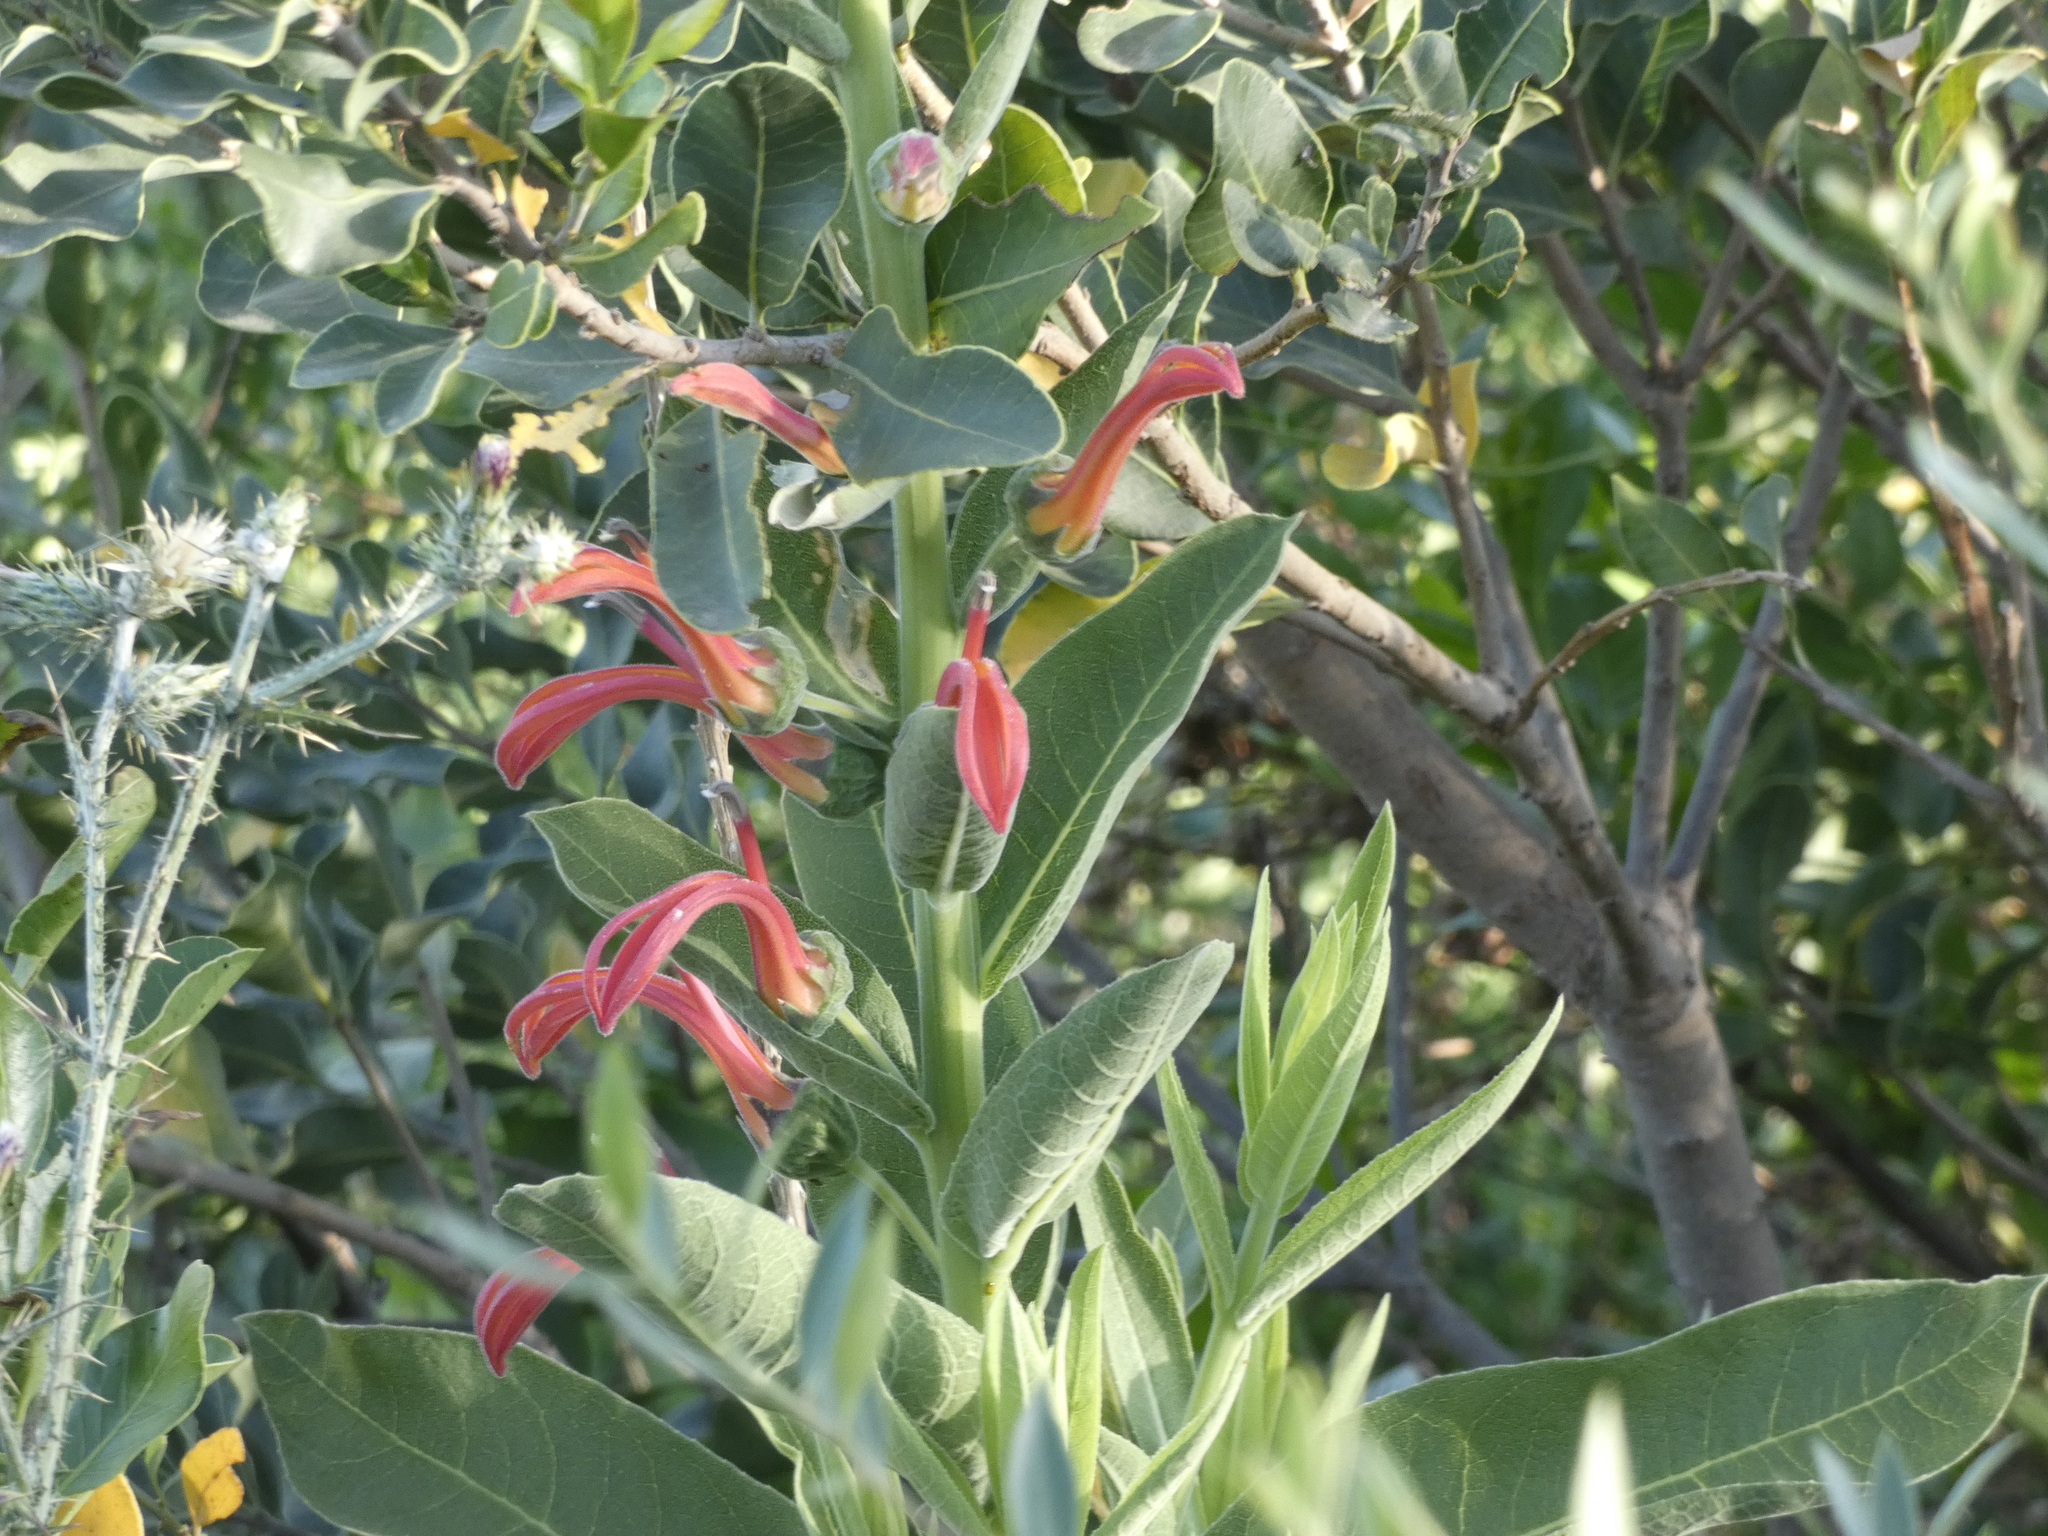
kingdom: Plantae
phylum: Tracheophyta
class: Magnoliopsida
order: Asterales
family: Campanulaceae
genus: Lobelia
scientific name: Lobelia excelsa
